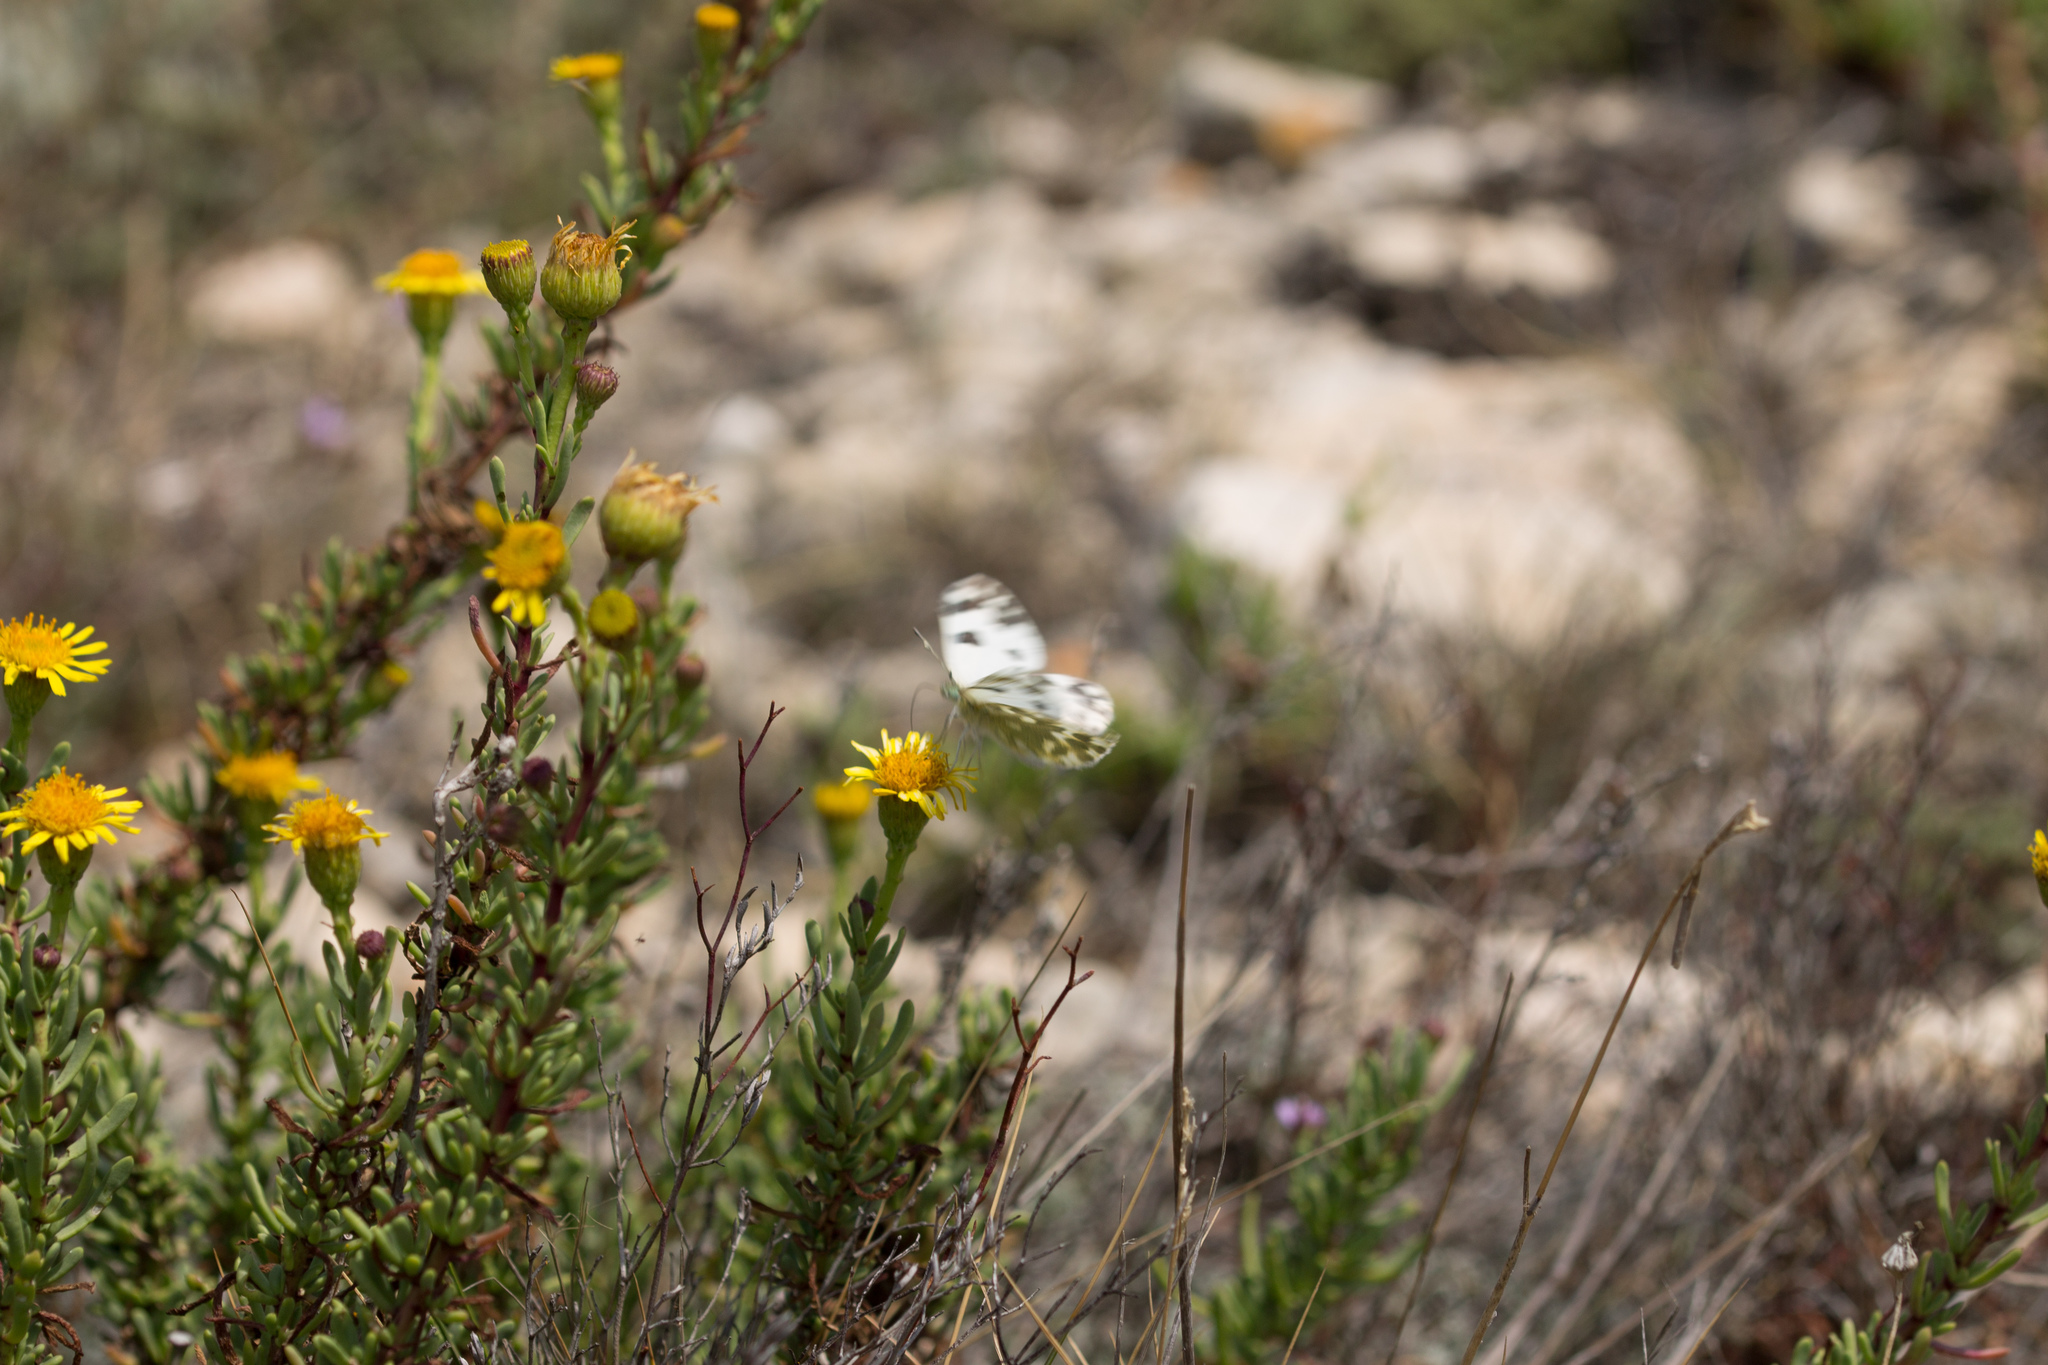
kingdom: Plantae
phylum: Tracheophyta
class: Magnoliopsida
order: Asterales
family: Asteraceae
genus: Limbarda
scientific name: Limbarda crithmoides
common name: Golden samphire
